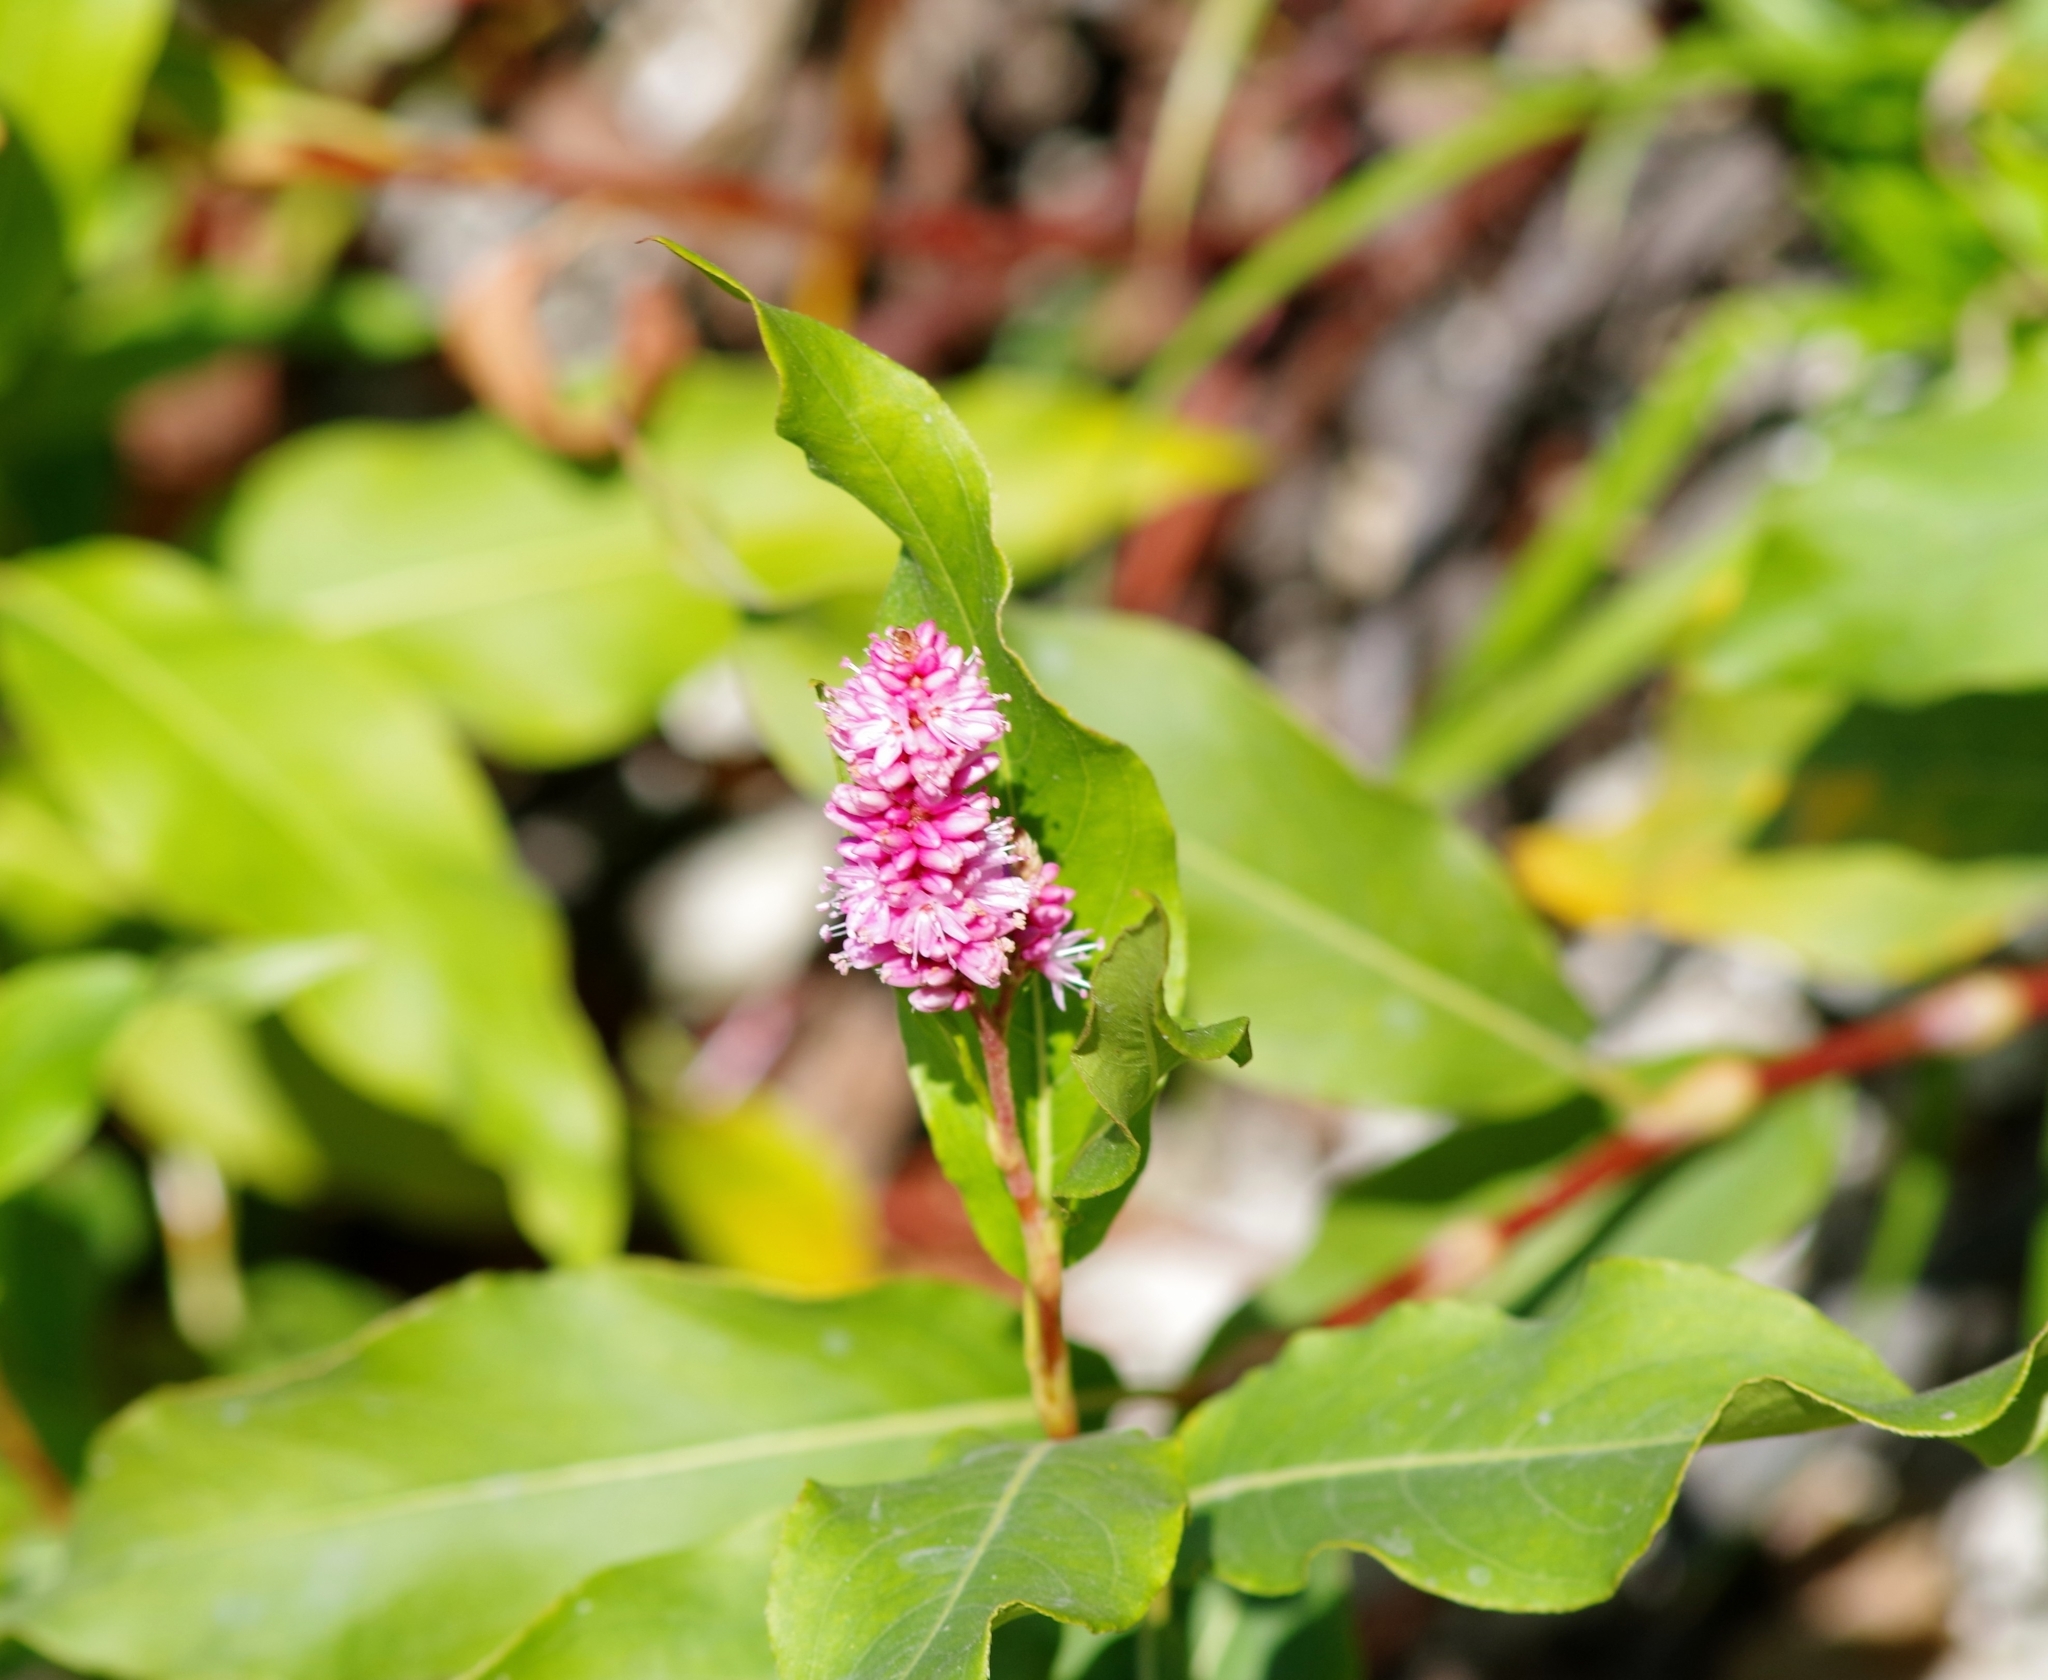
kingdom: Plantae
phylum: Tracheophyta
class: Magnoliopsida
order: Caryophyllales
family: Polygonaceae
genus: Persicaria
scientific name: Persicaria amphibia
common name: Amphibious bistort
